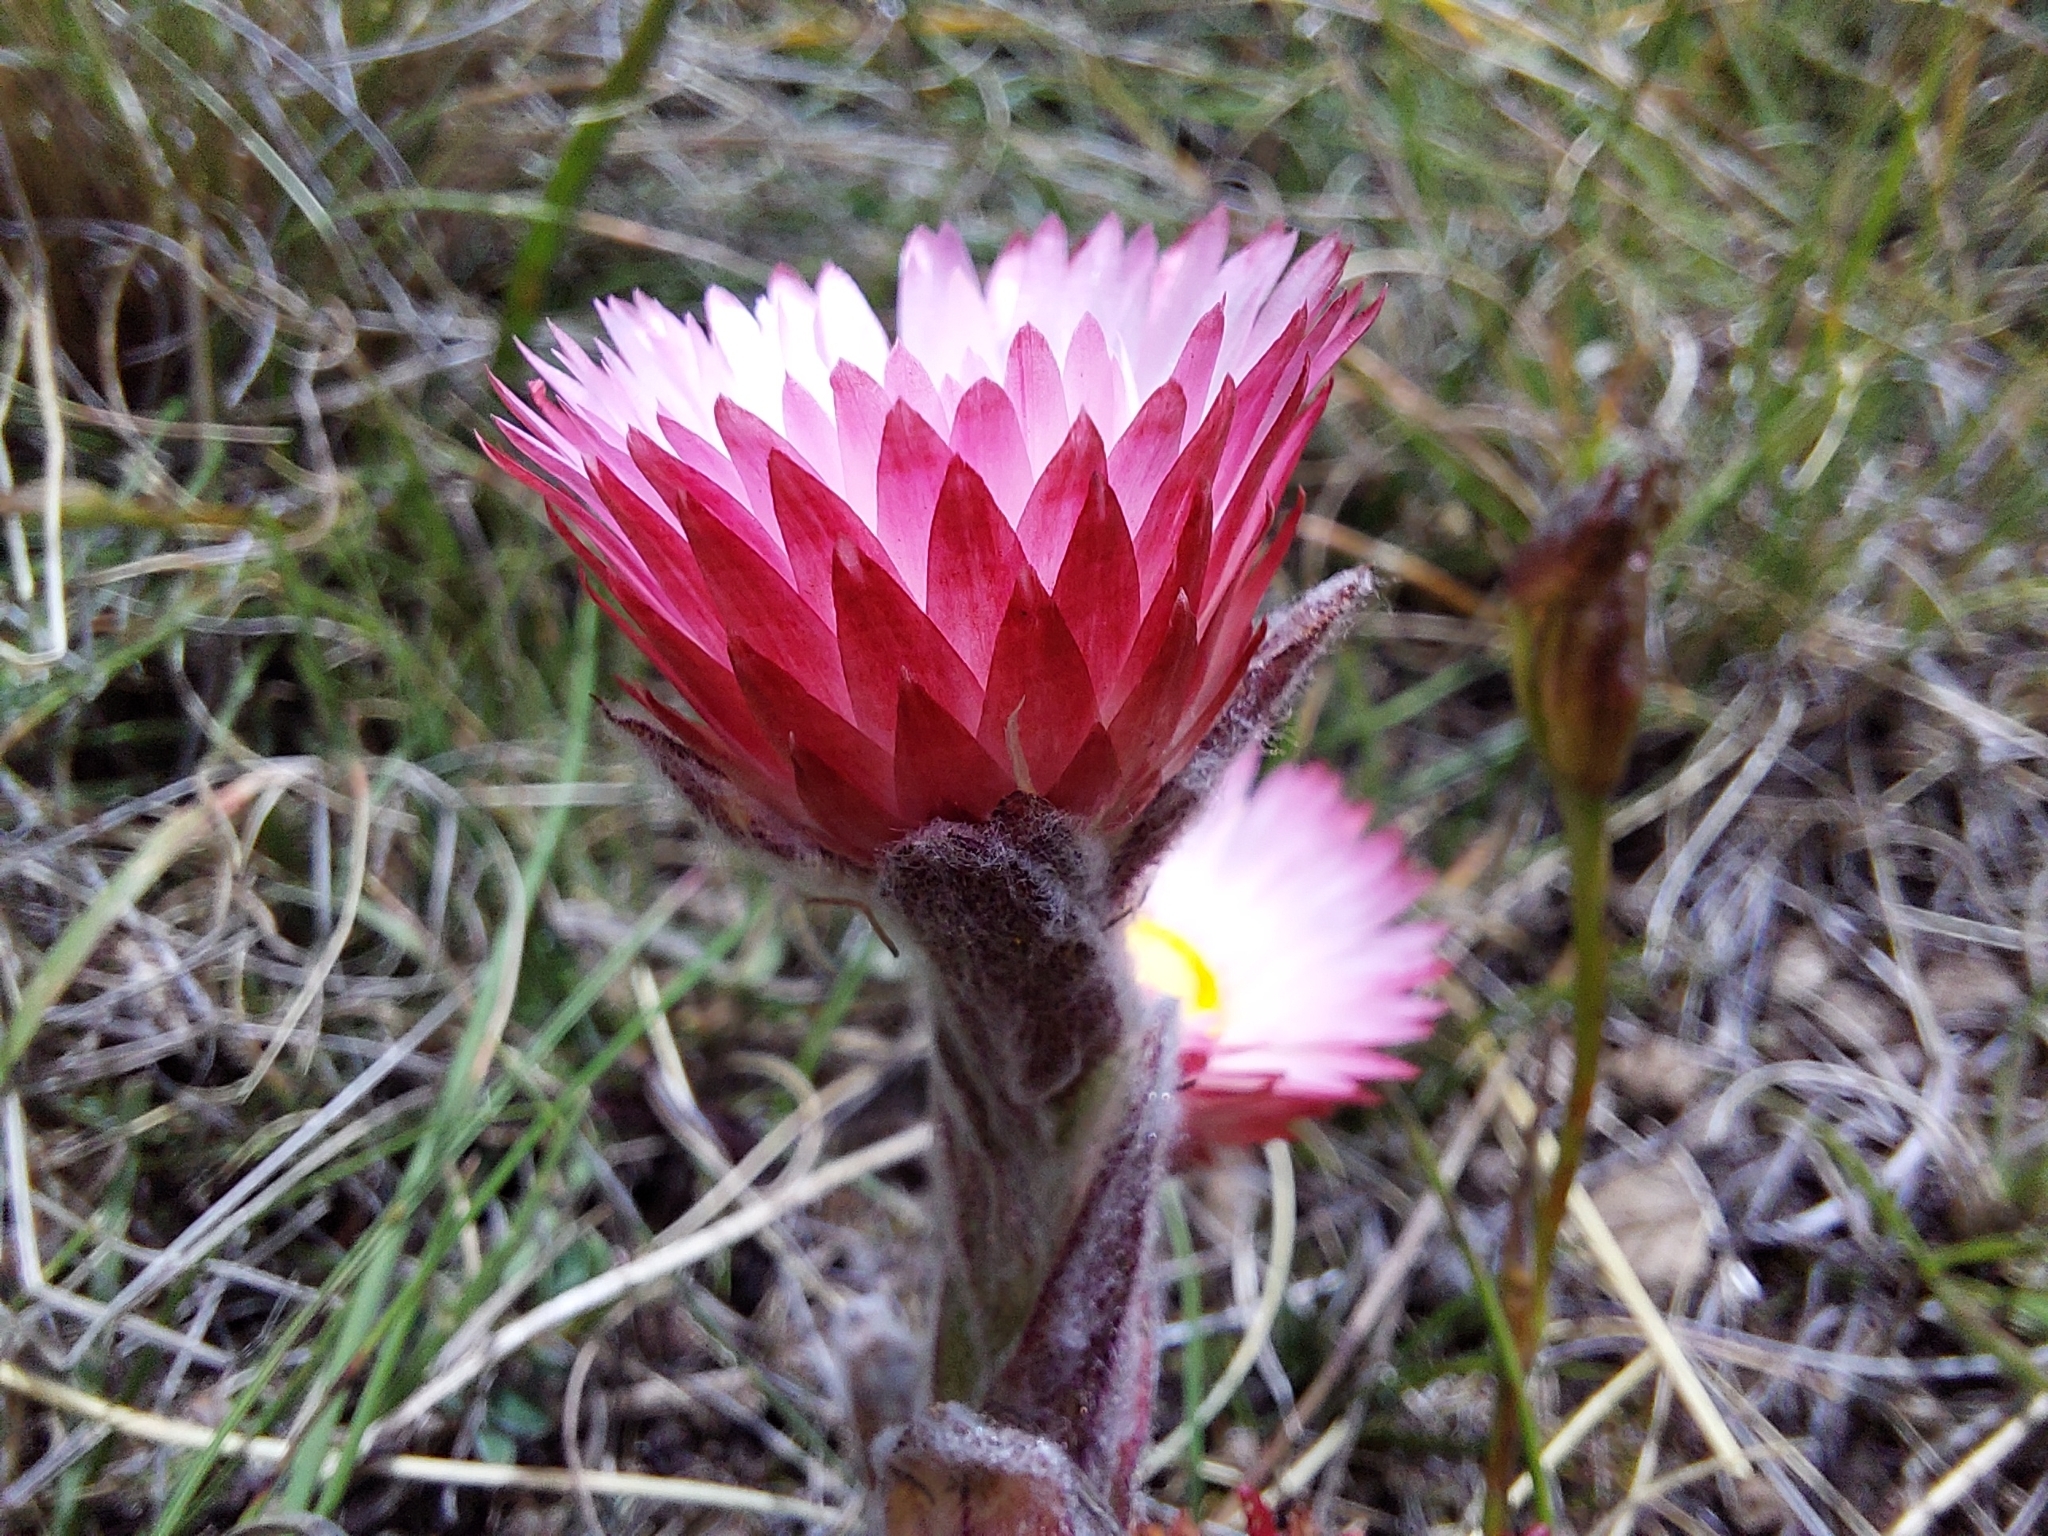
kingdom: Plantae
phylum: Tracheophyta
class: Magnoliopsida
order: Asterales
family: Asteraceae
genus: Helichrysum
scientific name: Helichrysum adenocarpum
